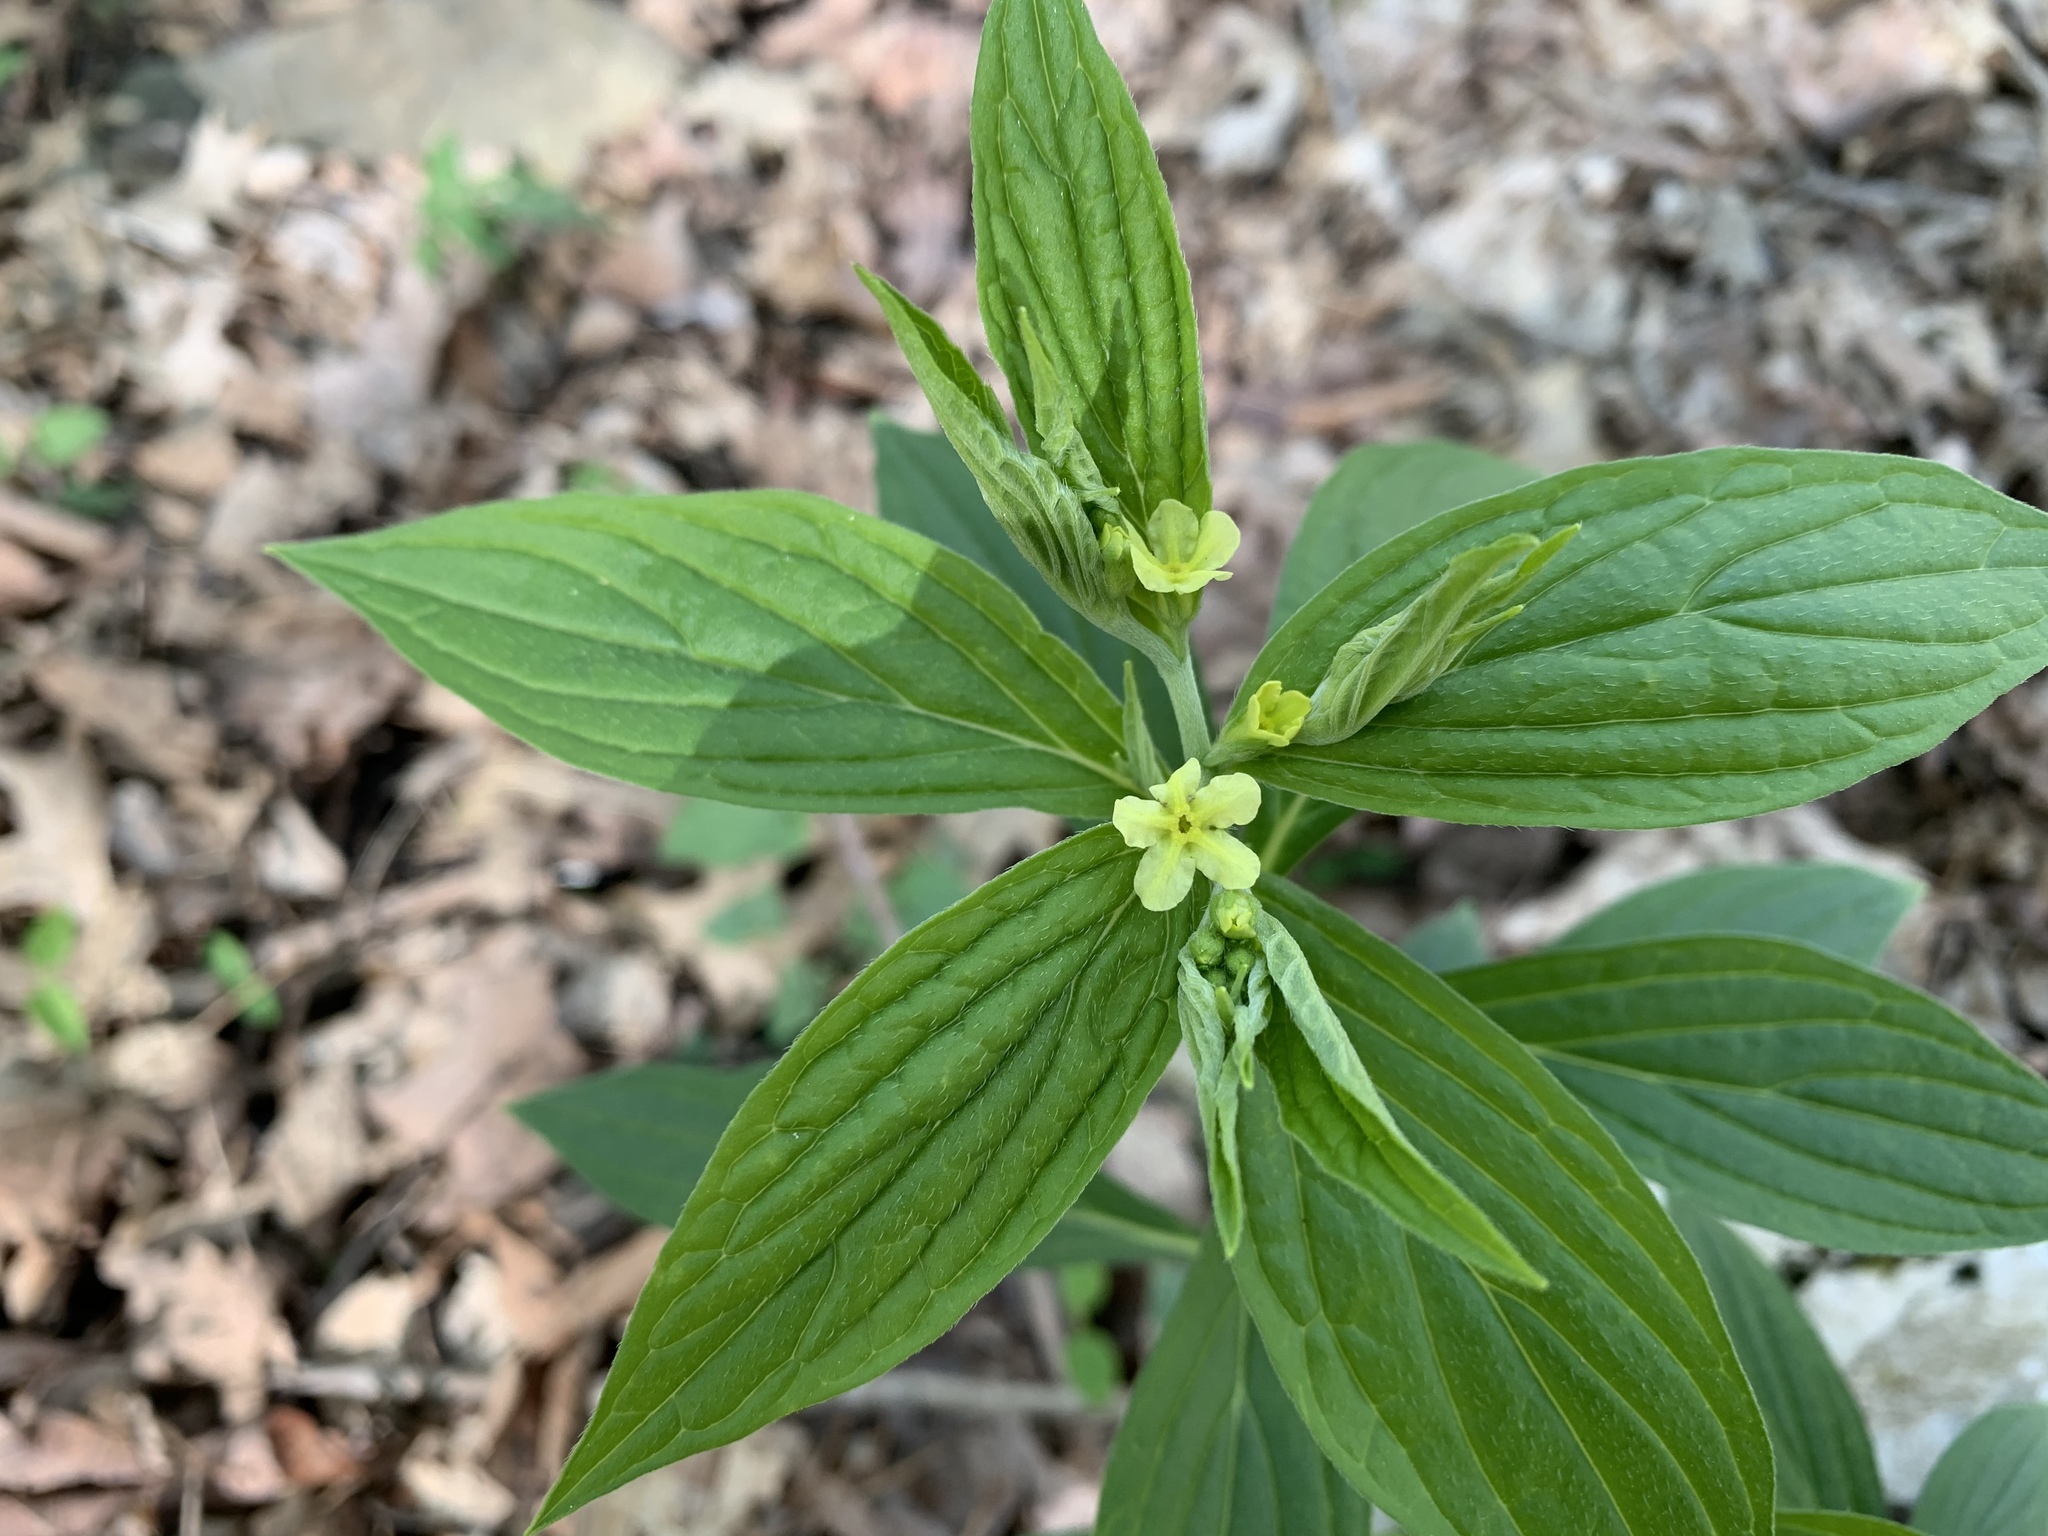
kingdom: Plantae
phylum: Tracheophyta
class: Magnoliopsida
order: Boraginales
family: Boraginaceae
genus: Lithospermum
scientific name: Lithospermum latifolium
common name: American gromwell
